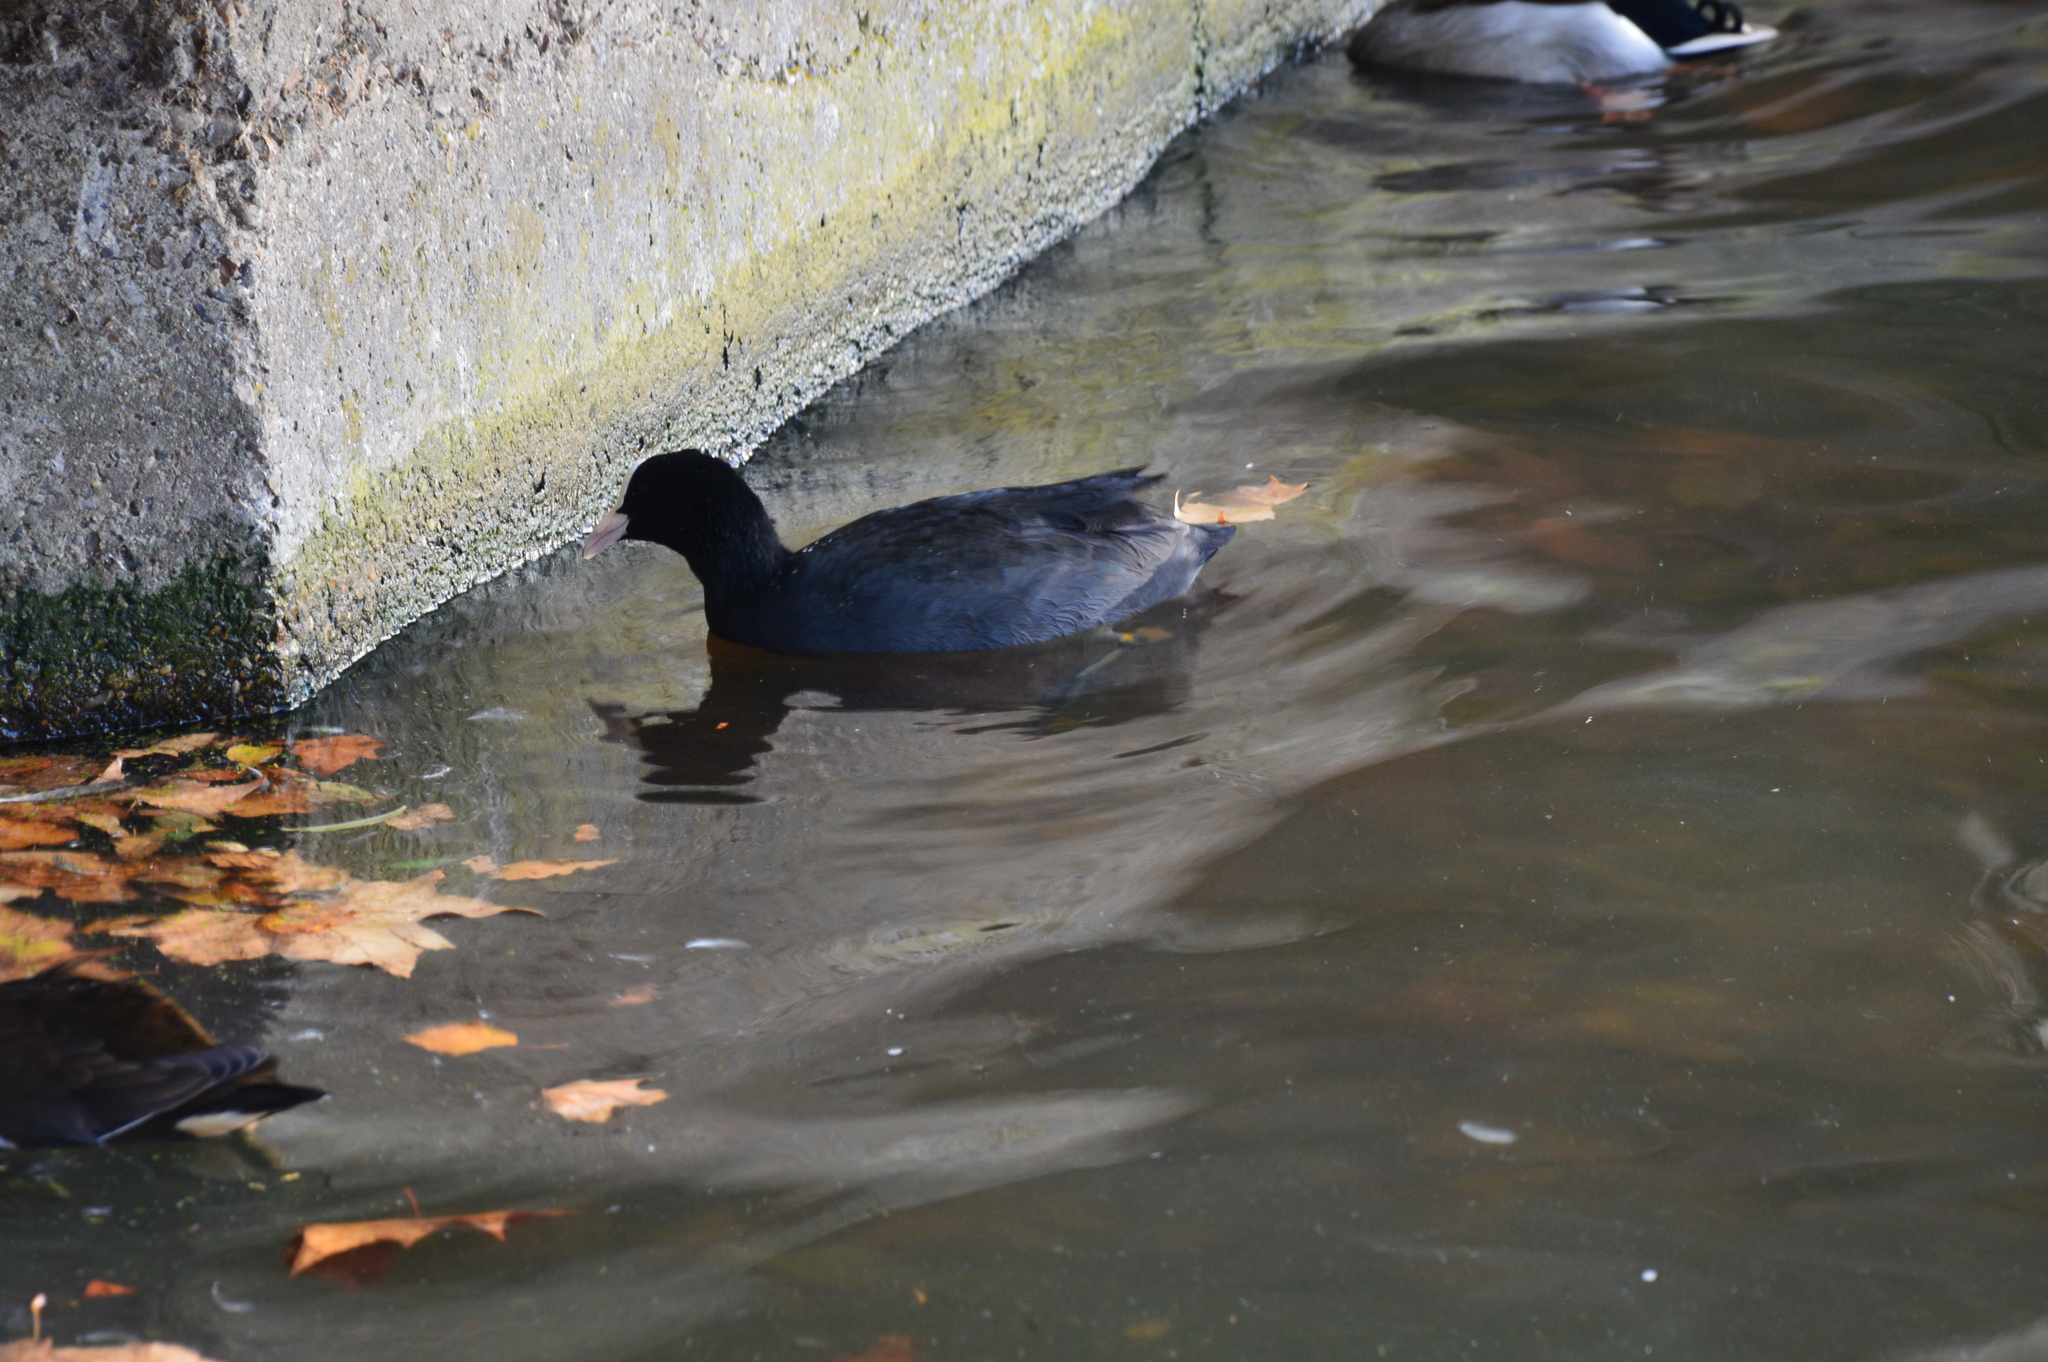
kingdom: Animalia
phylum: Chordata
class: Aves
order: Gruiformes
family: Rallidae
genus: Fulica
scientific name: Fulica atra
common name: Eurasian coot
